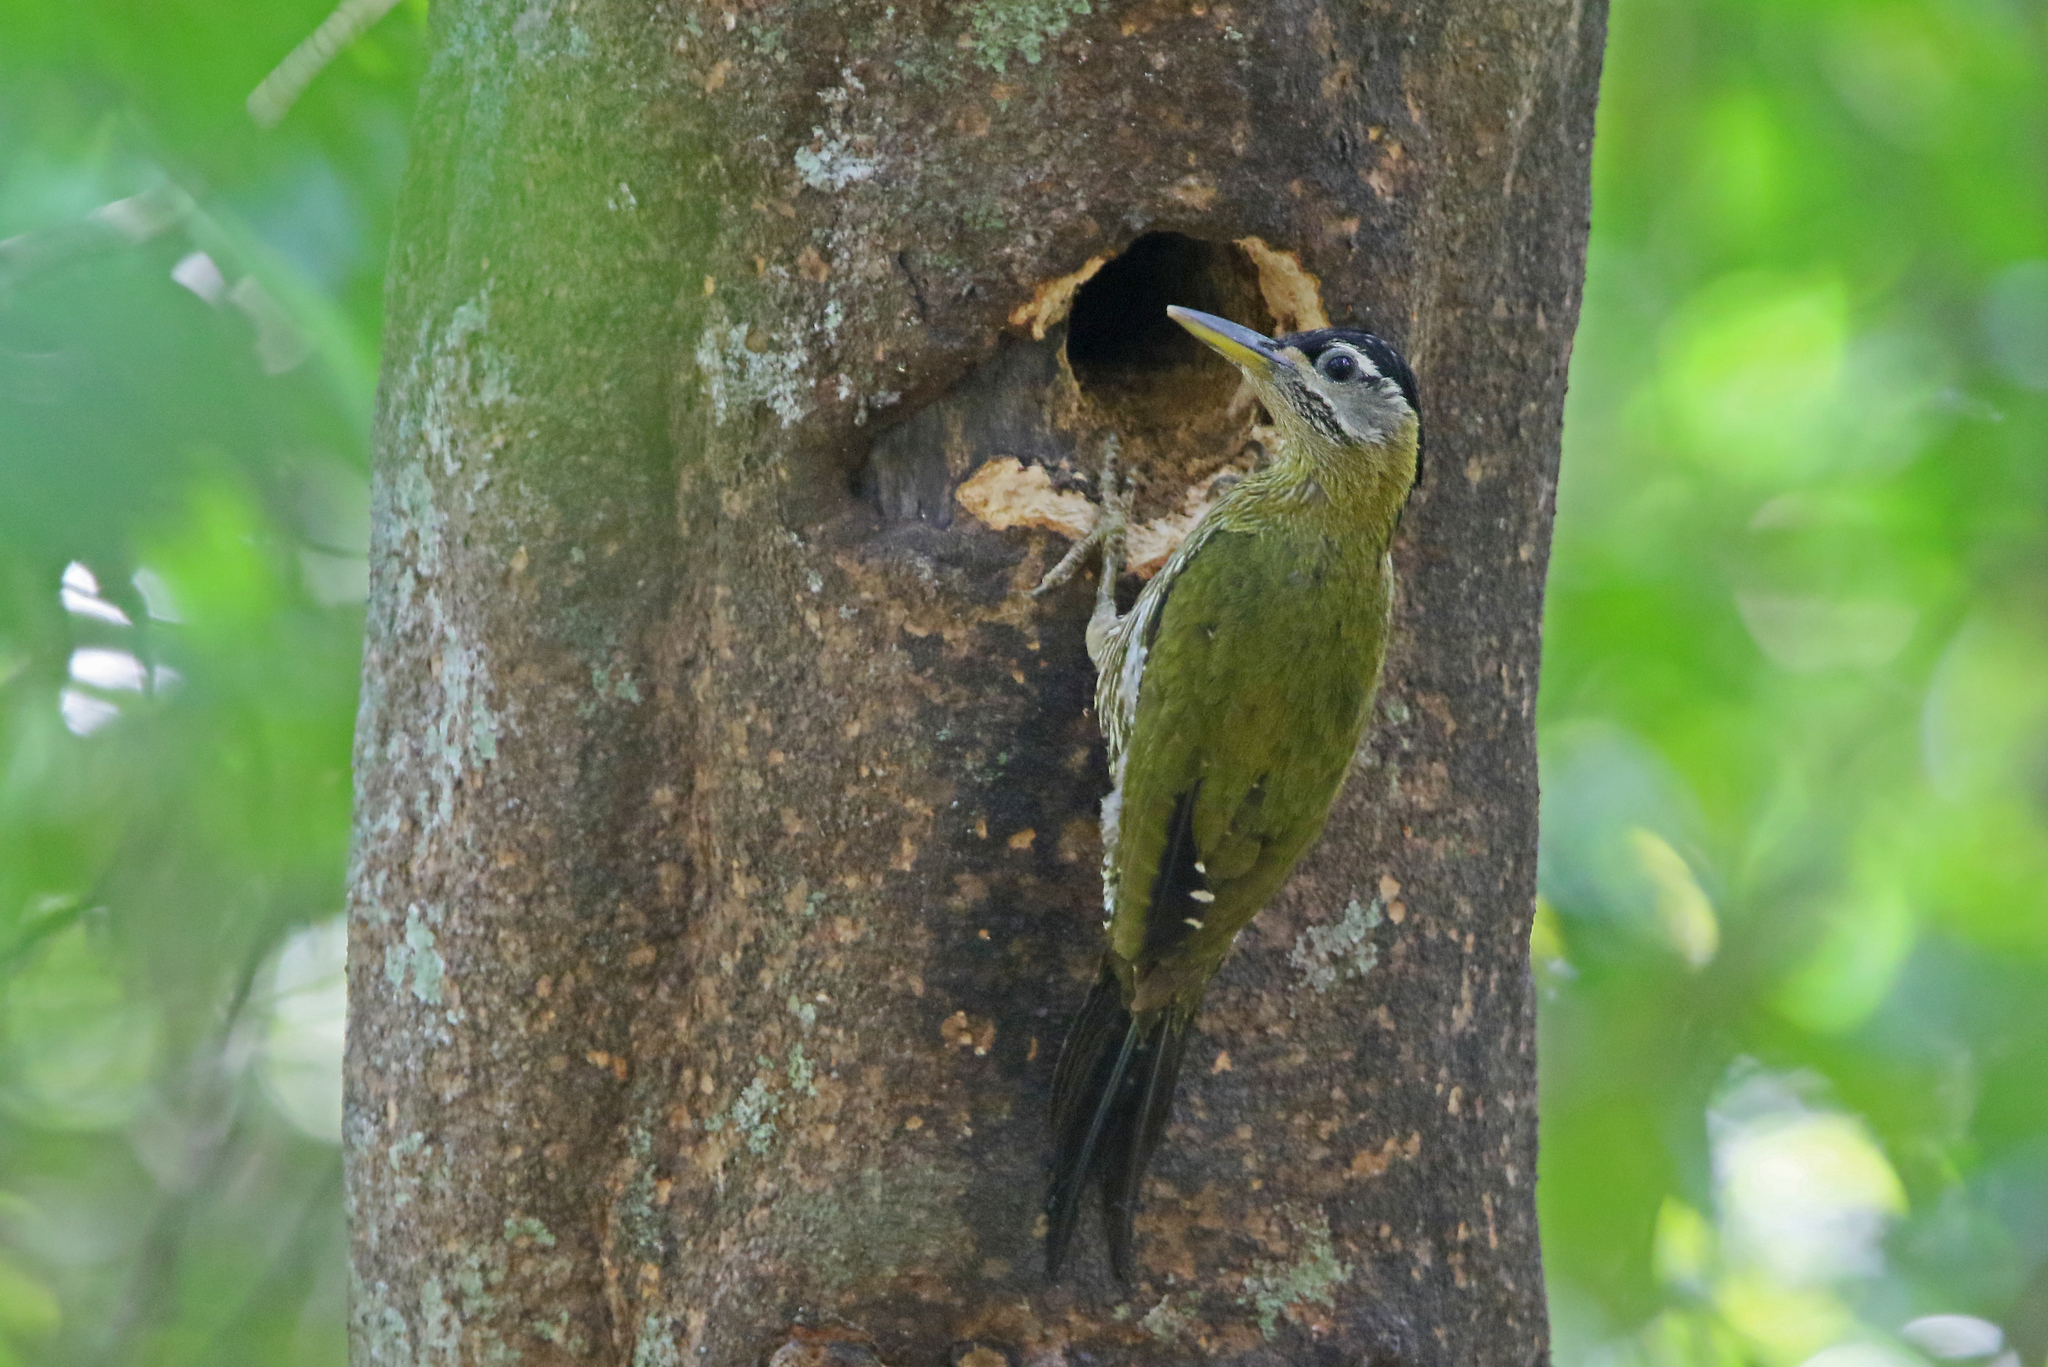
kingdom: Animalia
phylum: Chordata
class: Aves
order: Piciformes
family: Picidae
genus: Picus
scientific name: Picus viridanus
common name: Streak-breasted woodpecker
